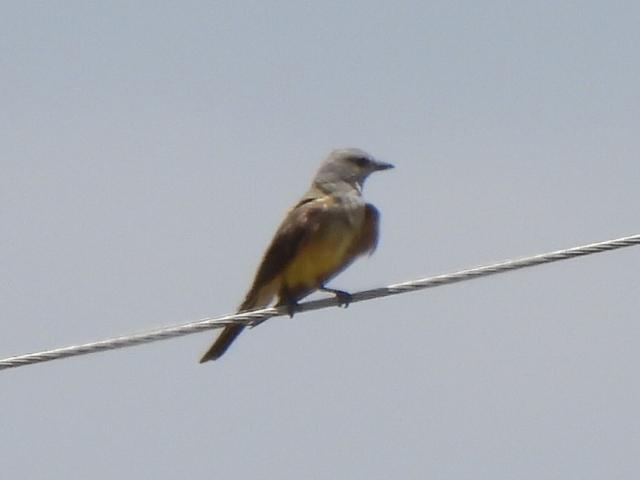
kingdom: Animalia
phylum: Chordata
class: Aves
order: Passeriformes
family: Tyrannidae
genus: Tyrannus
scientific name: Tyrannus verticalis
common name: Western kingbird
